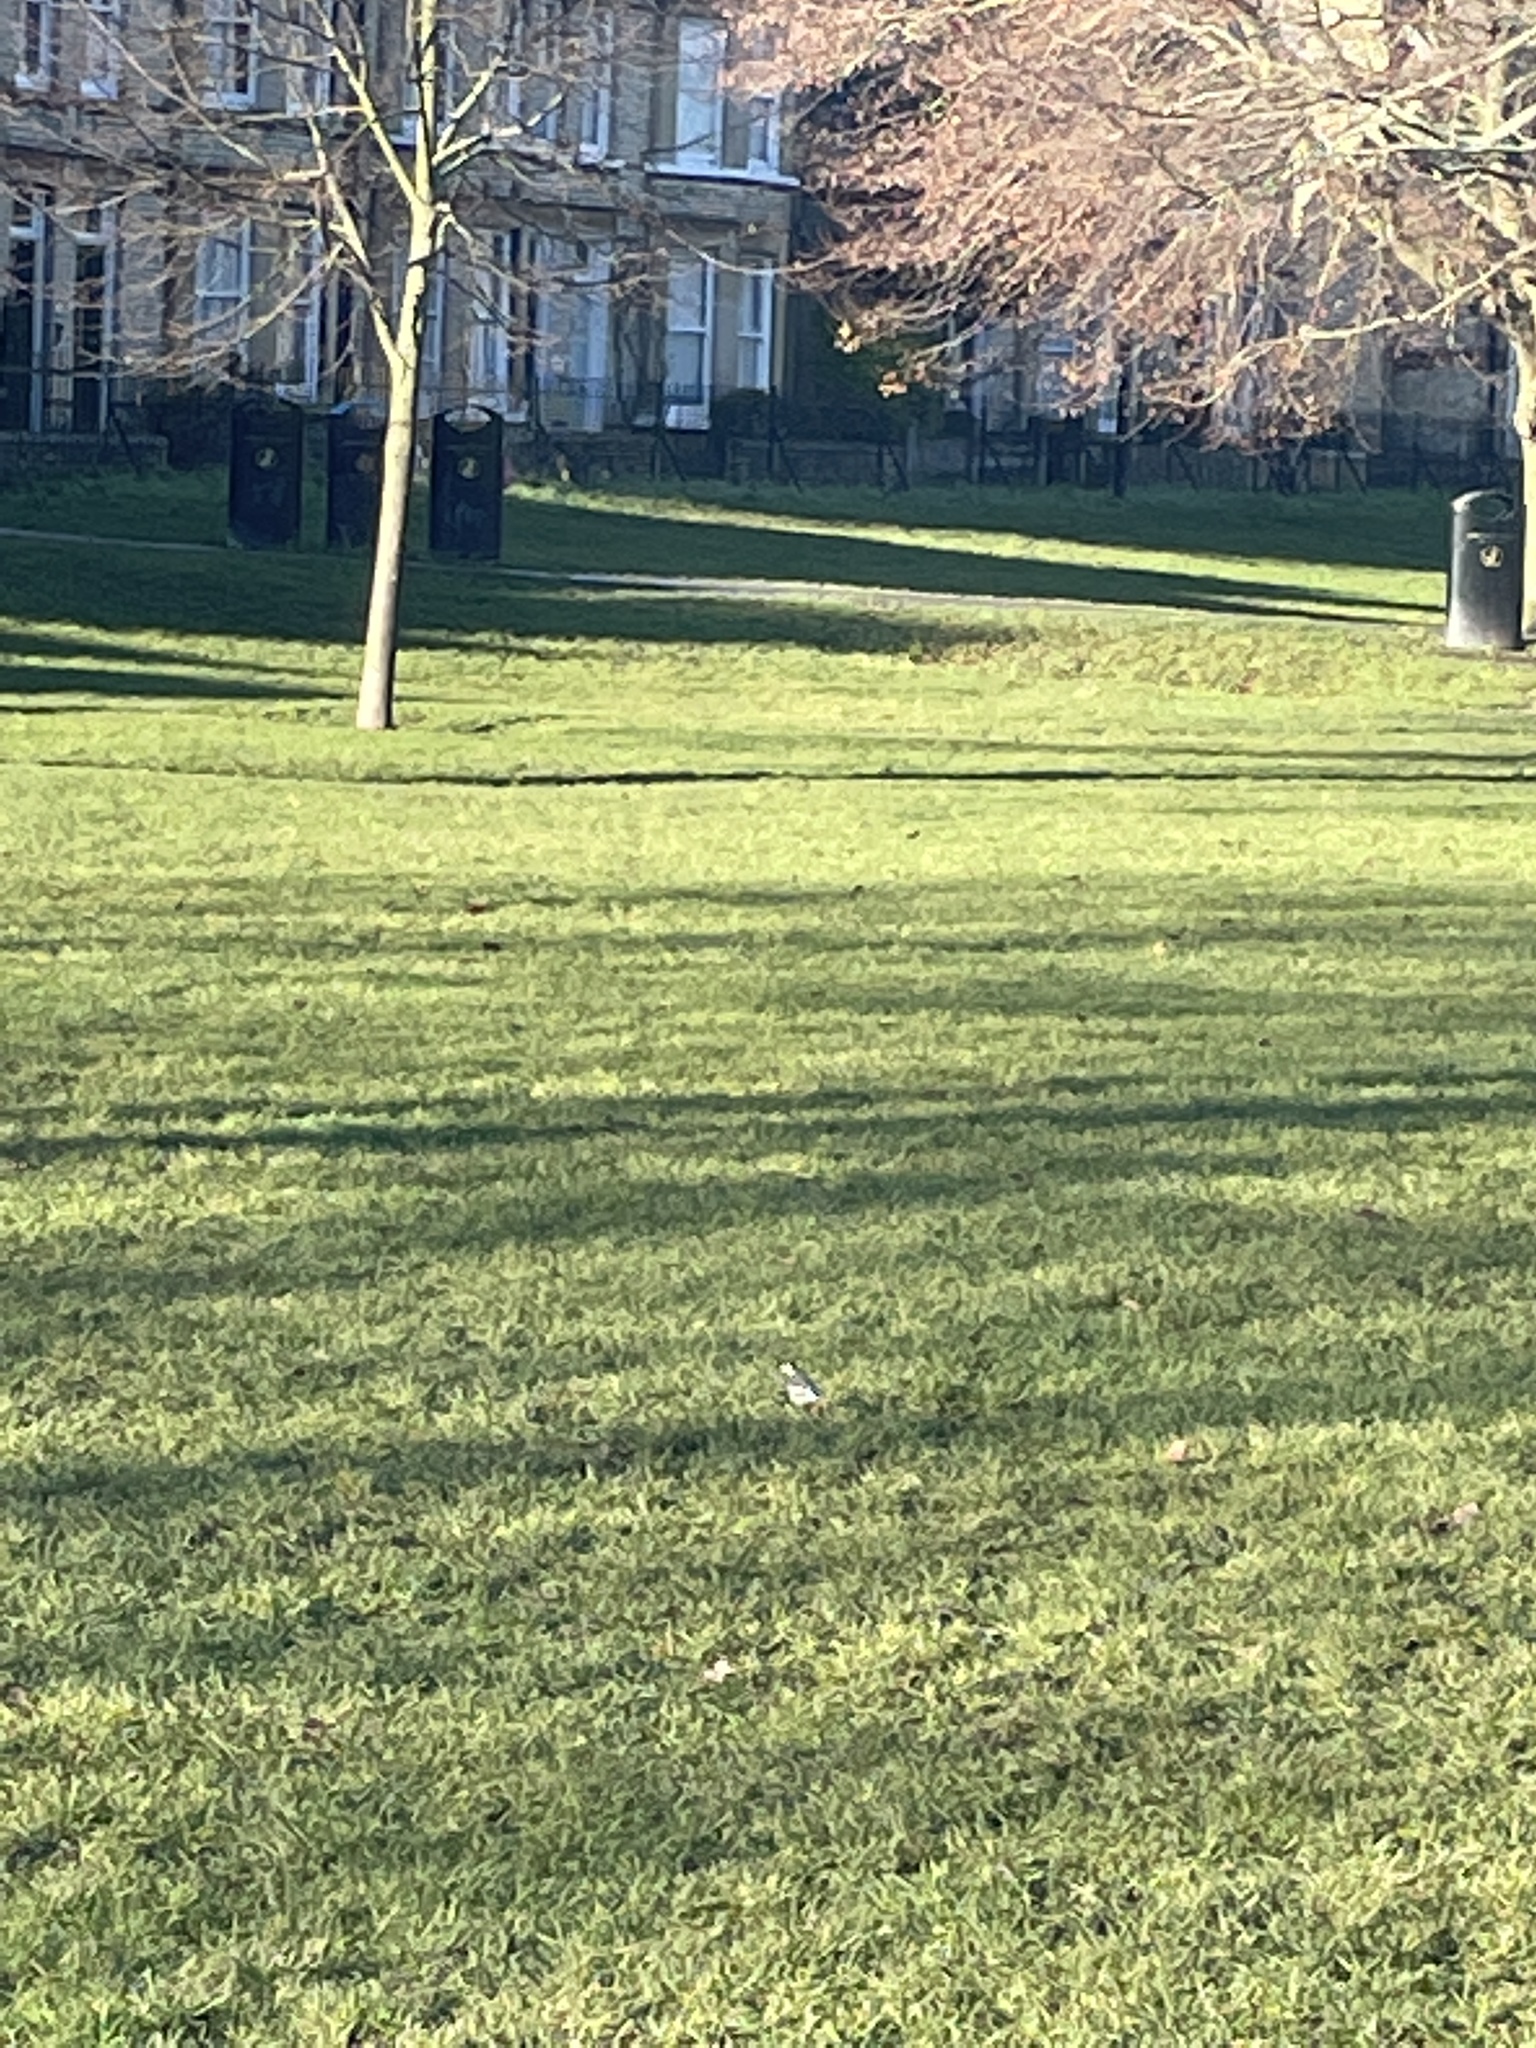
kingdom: Animalia
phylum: Chordata
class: Aves
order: Passeriformes
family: Motacillidae
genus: Motacilla
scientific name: Motacilla alba
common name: White wagtail
